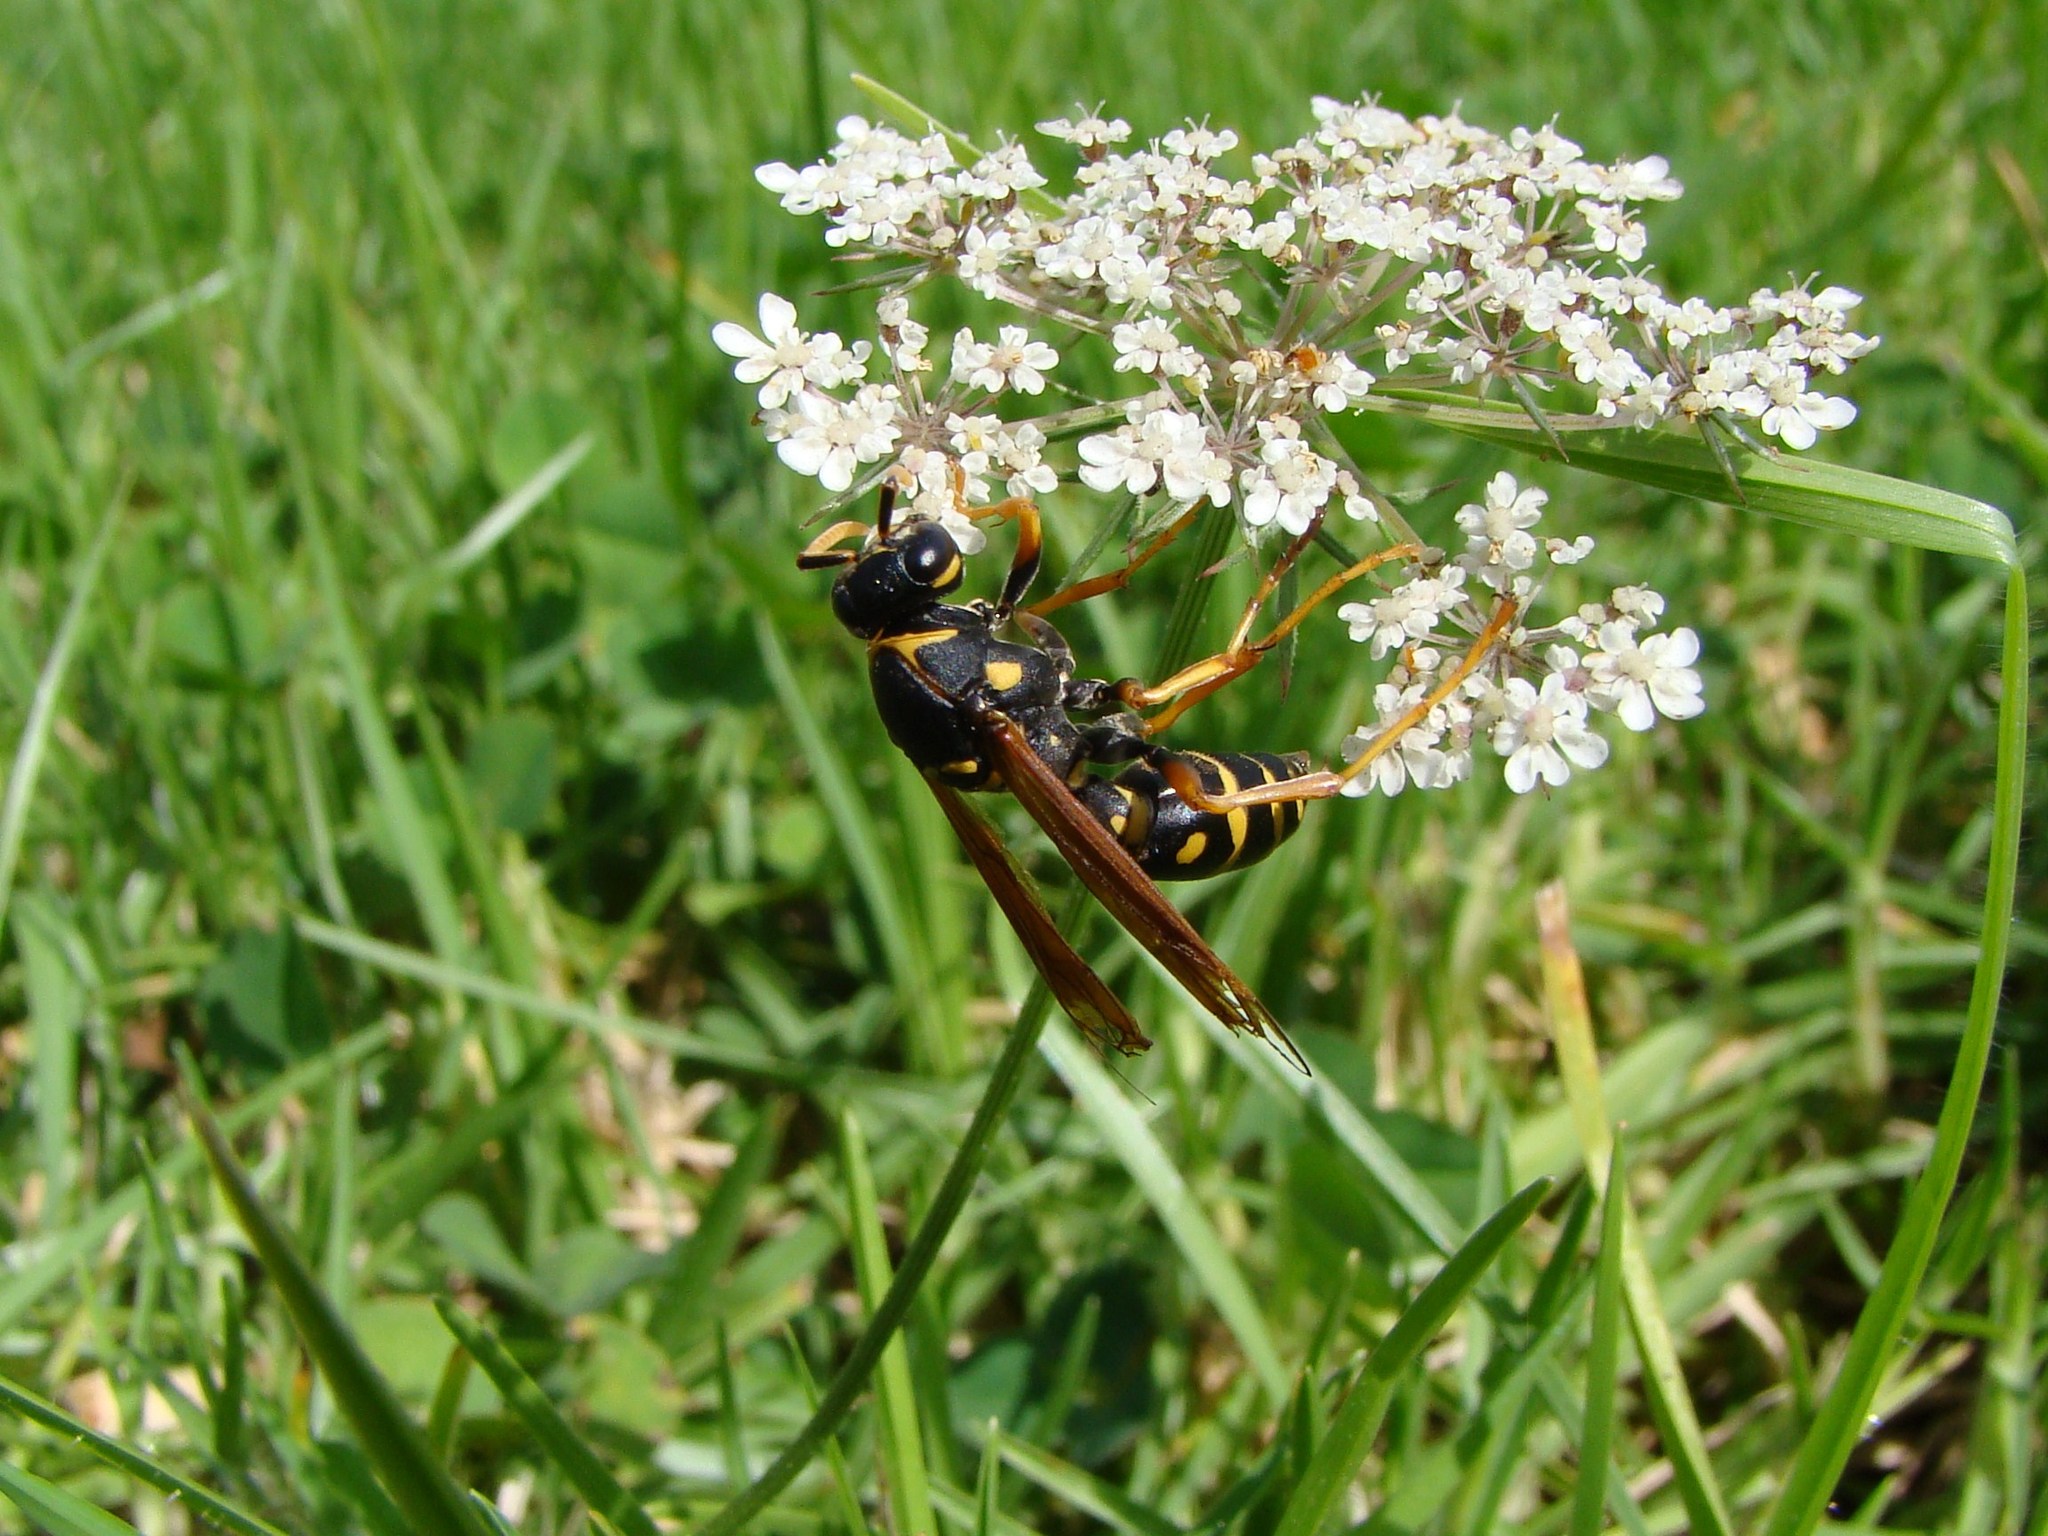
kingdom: Animalia
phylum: Arthropoda
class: Insecta
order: Hymenoptera
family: Eumenidae
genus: Polistes
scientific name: Polistes chinensis
